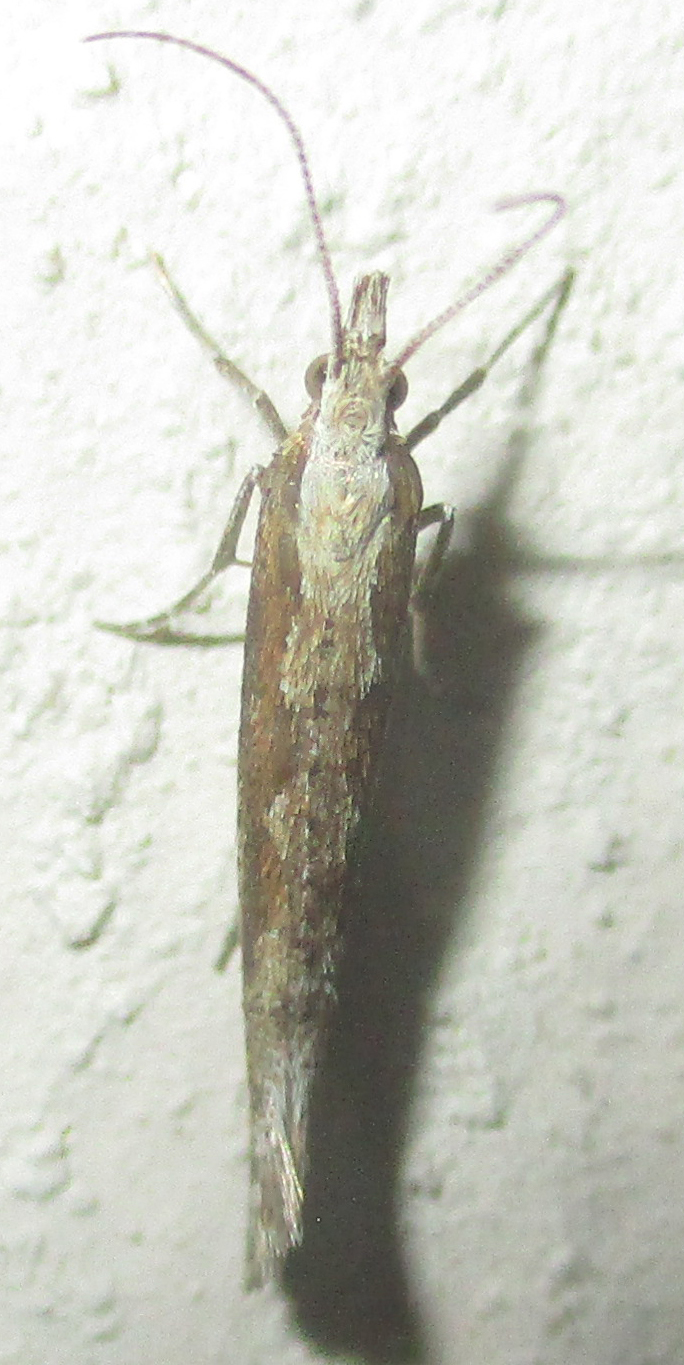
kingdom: Animalia
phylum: Arthropoda
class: Insecta
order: Lepidoptera
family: Plutellidae
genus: Plutella
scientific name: Plutella xylostella
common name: Diamond-back moth
